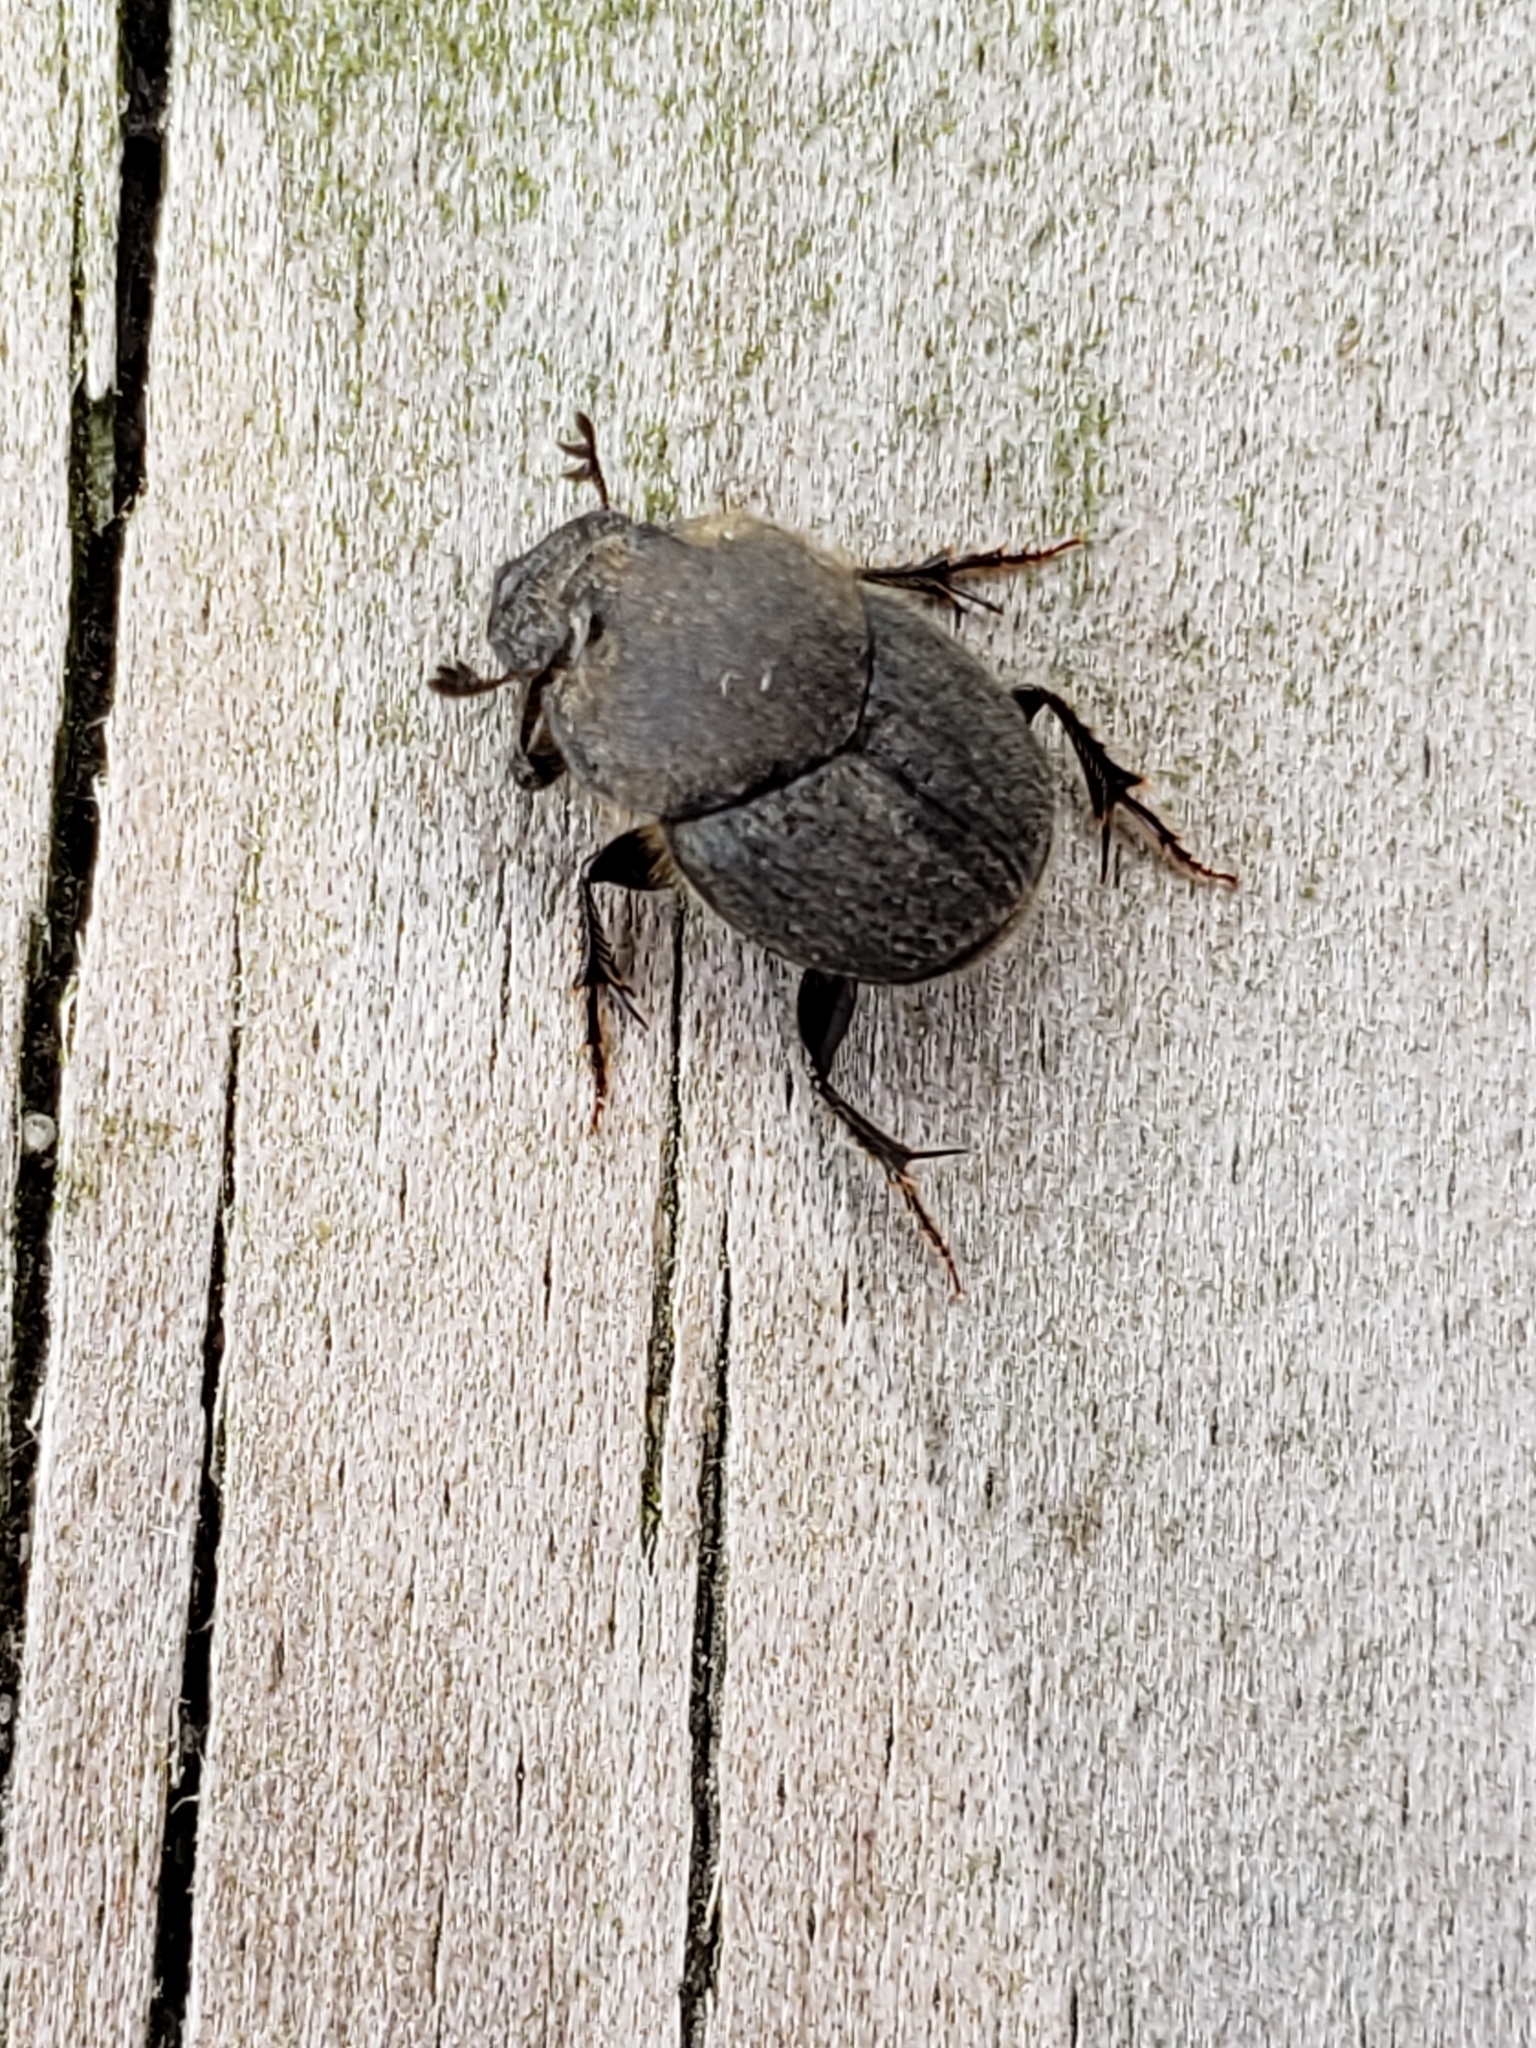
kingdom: Animalia
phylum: Arthropoda
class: Insecta
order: Coleoptera
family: Scarabaeidae
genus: Onthophagus
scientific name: Onthophagus hecate
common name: Scooped scarab
